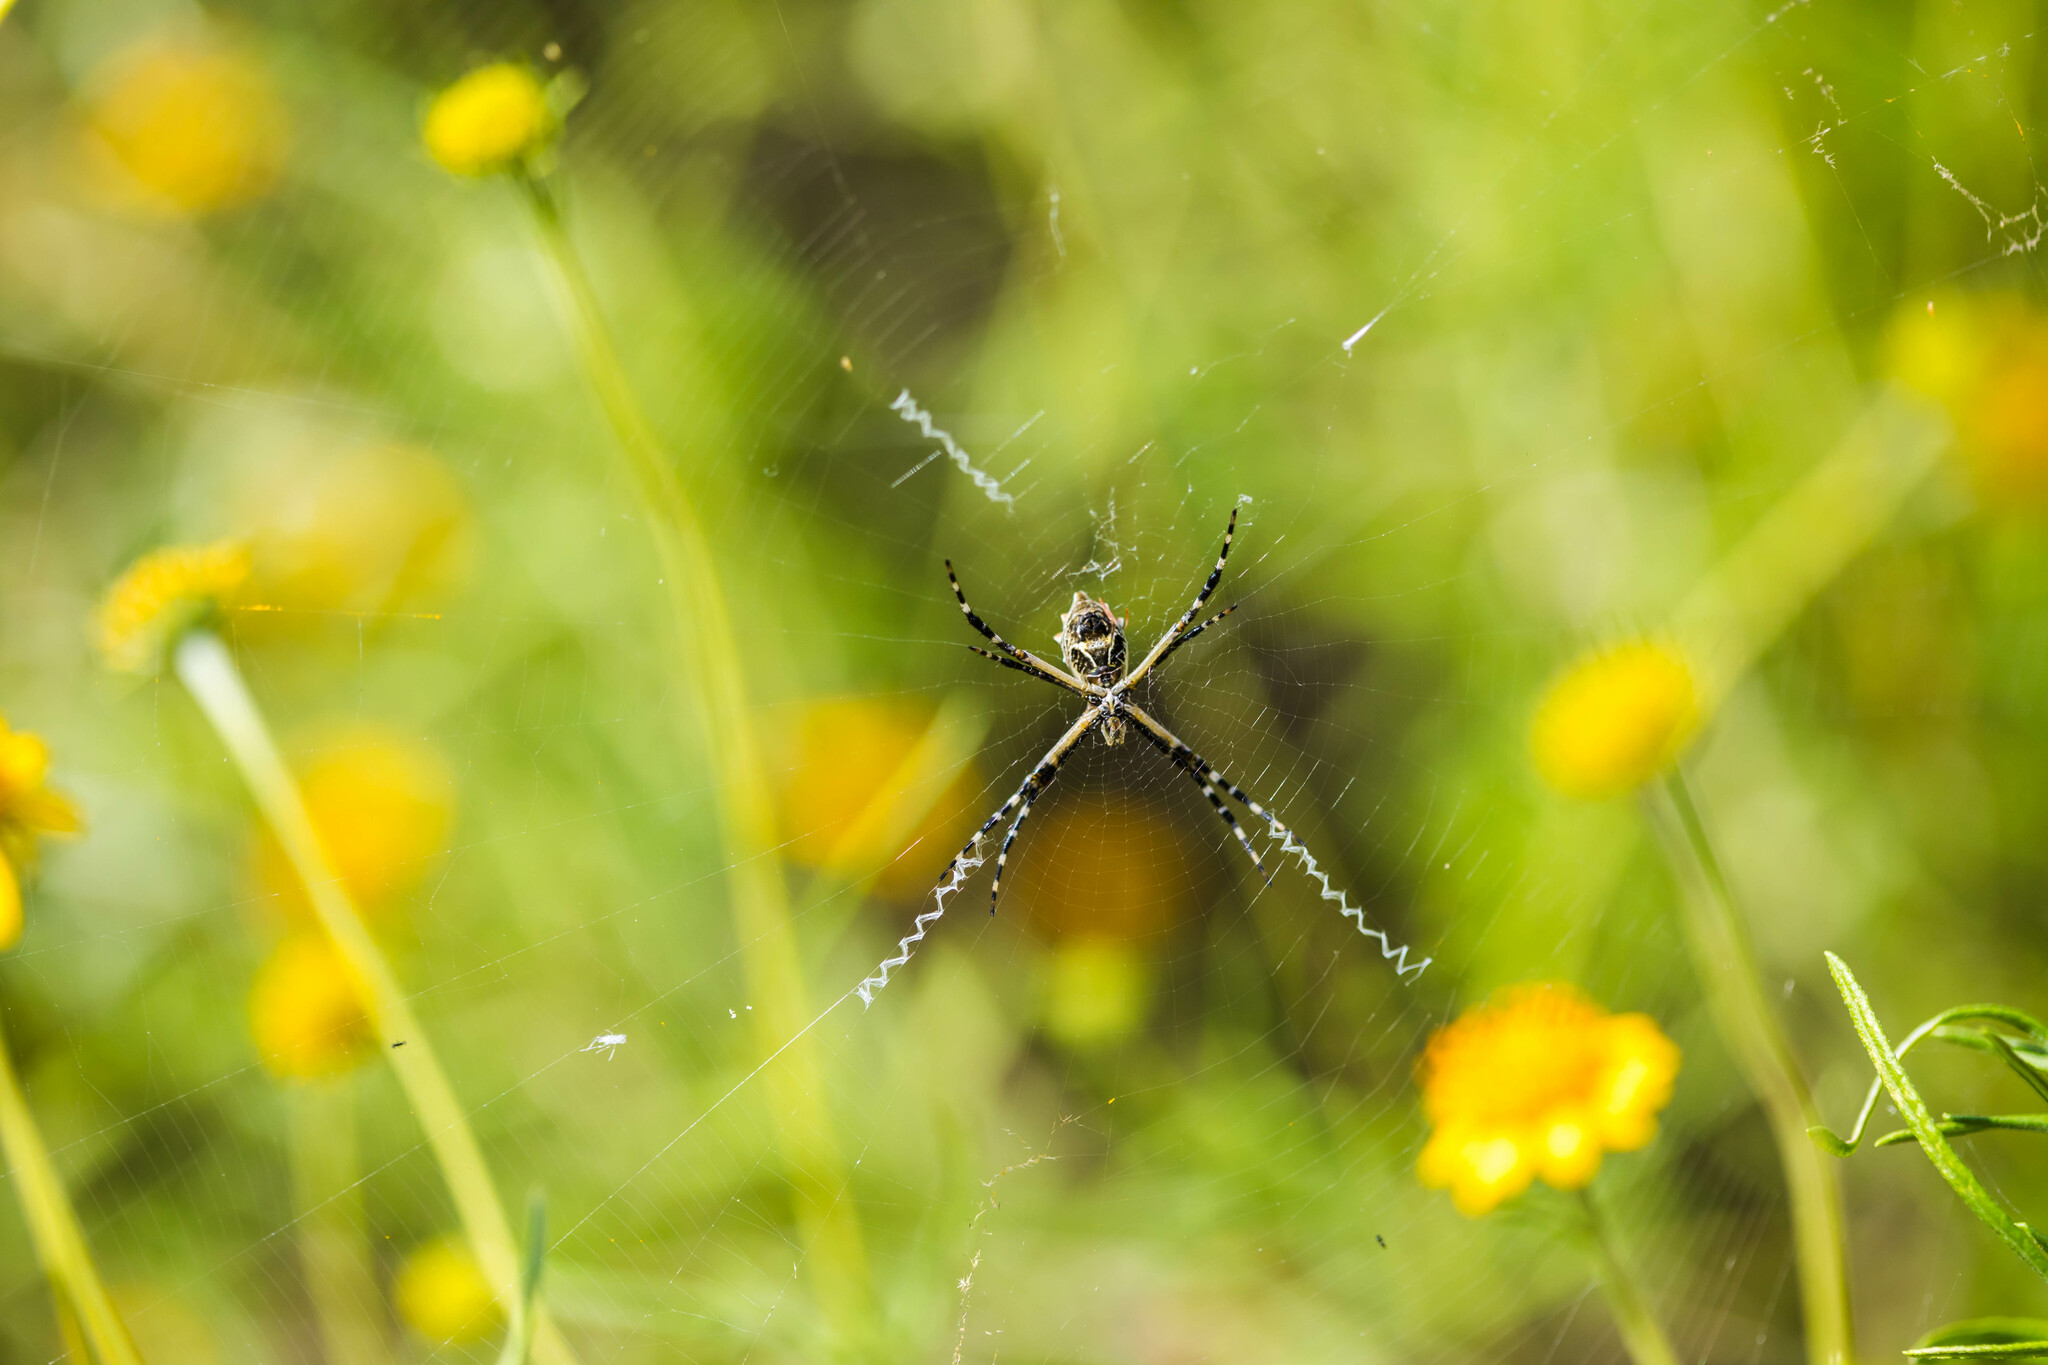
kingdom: Animalia
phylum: Arthropoda
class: Arachnida
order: Araneae
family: Araneidae
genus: Argiope
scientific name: Argiope argentata
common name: Orb weavers
